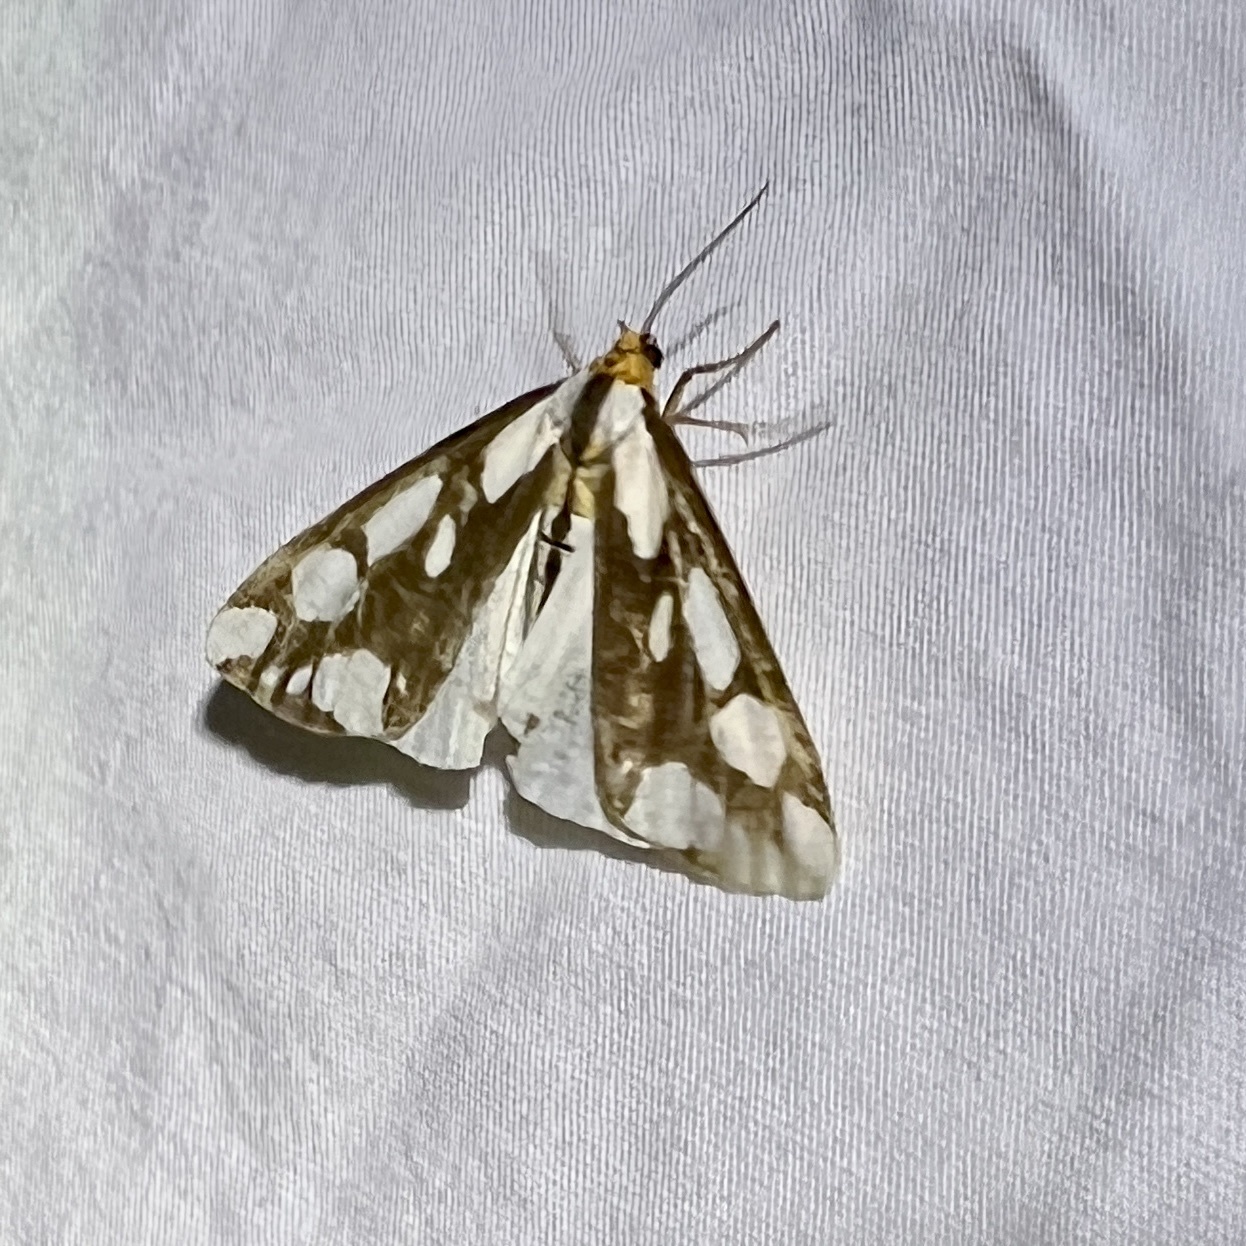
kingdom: Animalia
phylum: Arthropoda
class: Insecta
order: Lepidoptera
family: Erebidae
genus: Haploa
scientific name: Haploa confusa
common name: Confused haploa moth
